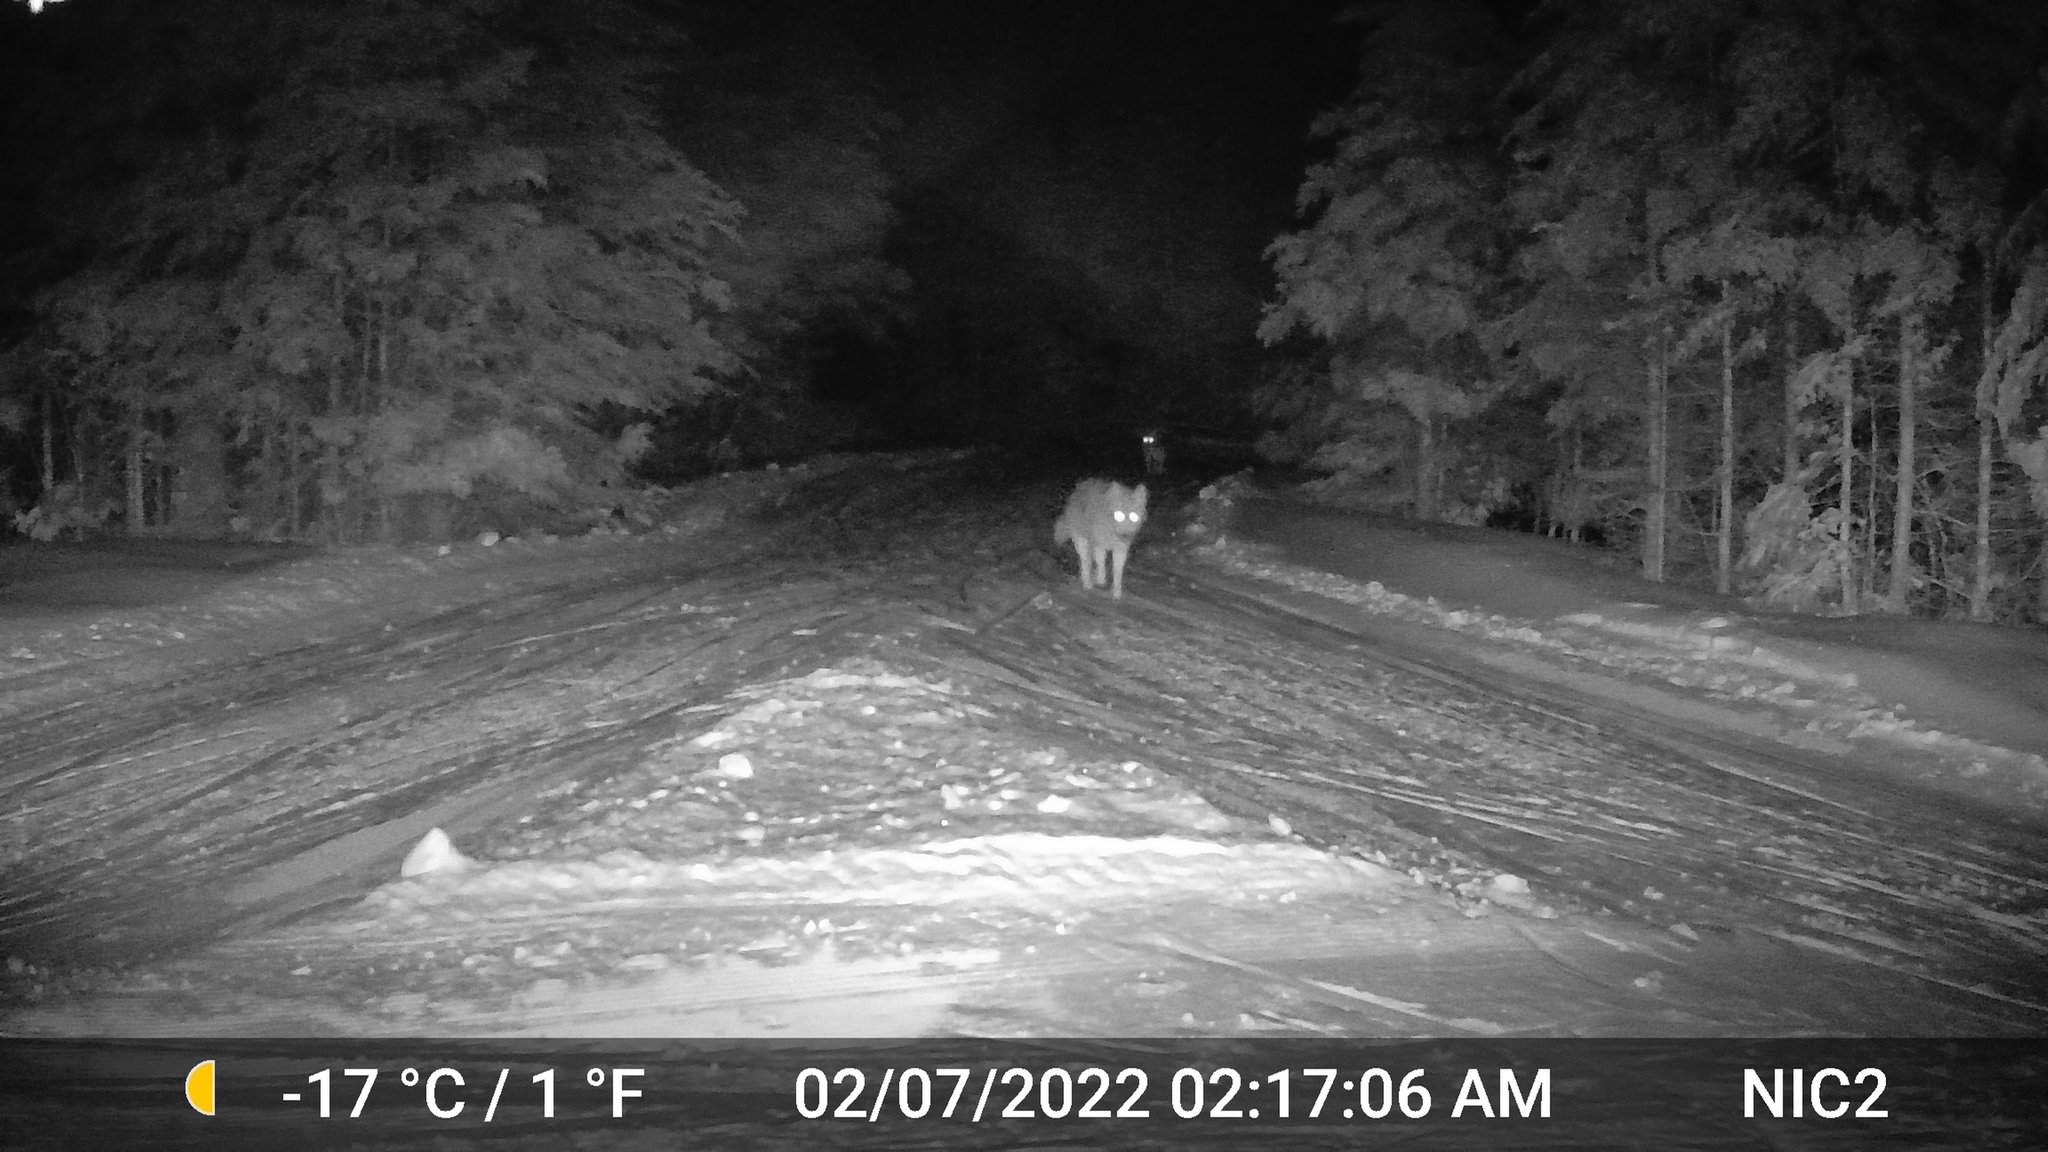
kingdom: Animalia
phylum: Chordata
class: Mammalia
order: Carnivora
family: Canidae
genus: Canis
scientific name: Canis latrans
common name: Coyote
